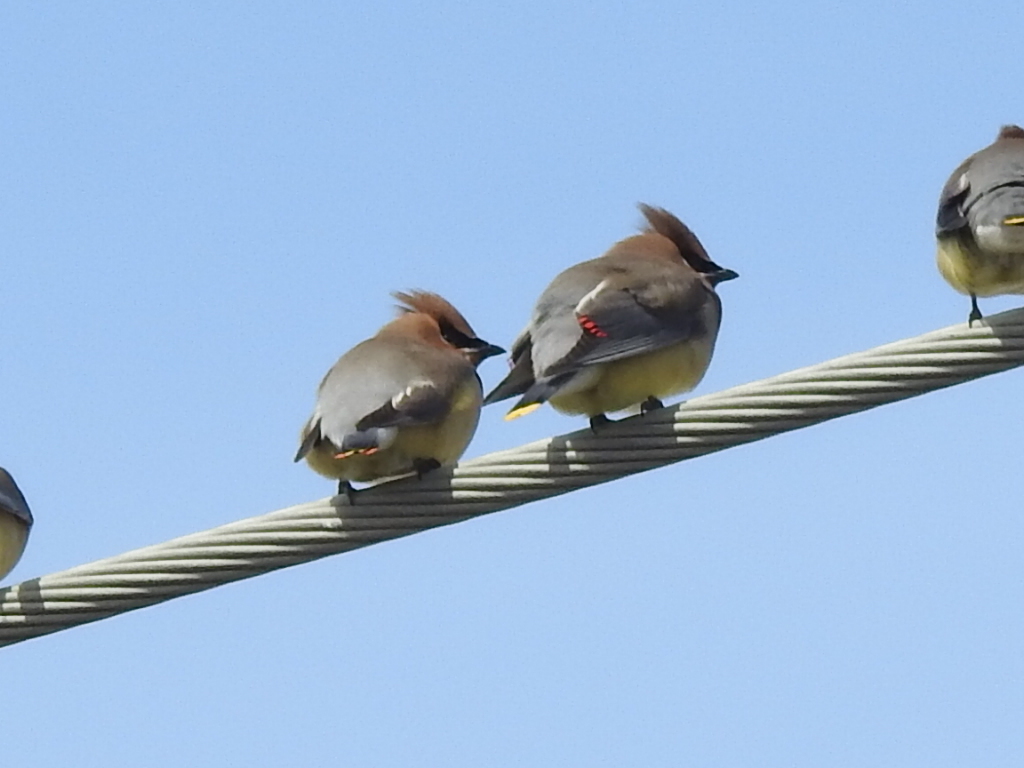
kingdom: Animalia
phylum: Chordata
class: Aves
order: Passeriformes
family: Bombycillidae
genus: Bombycilla
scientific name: Bombycilla cedrorum
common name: Cedar waxwing
